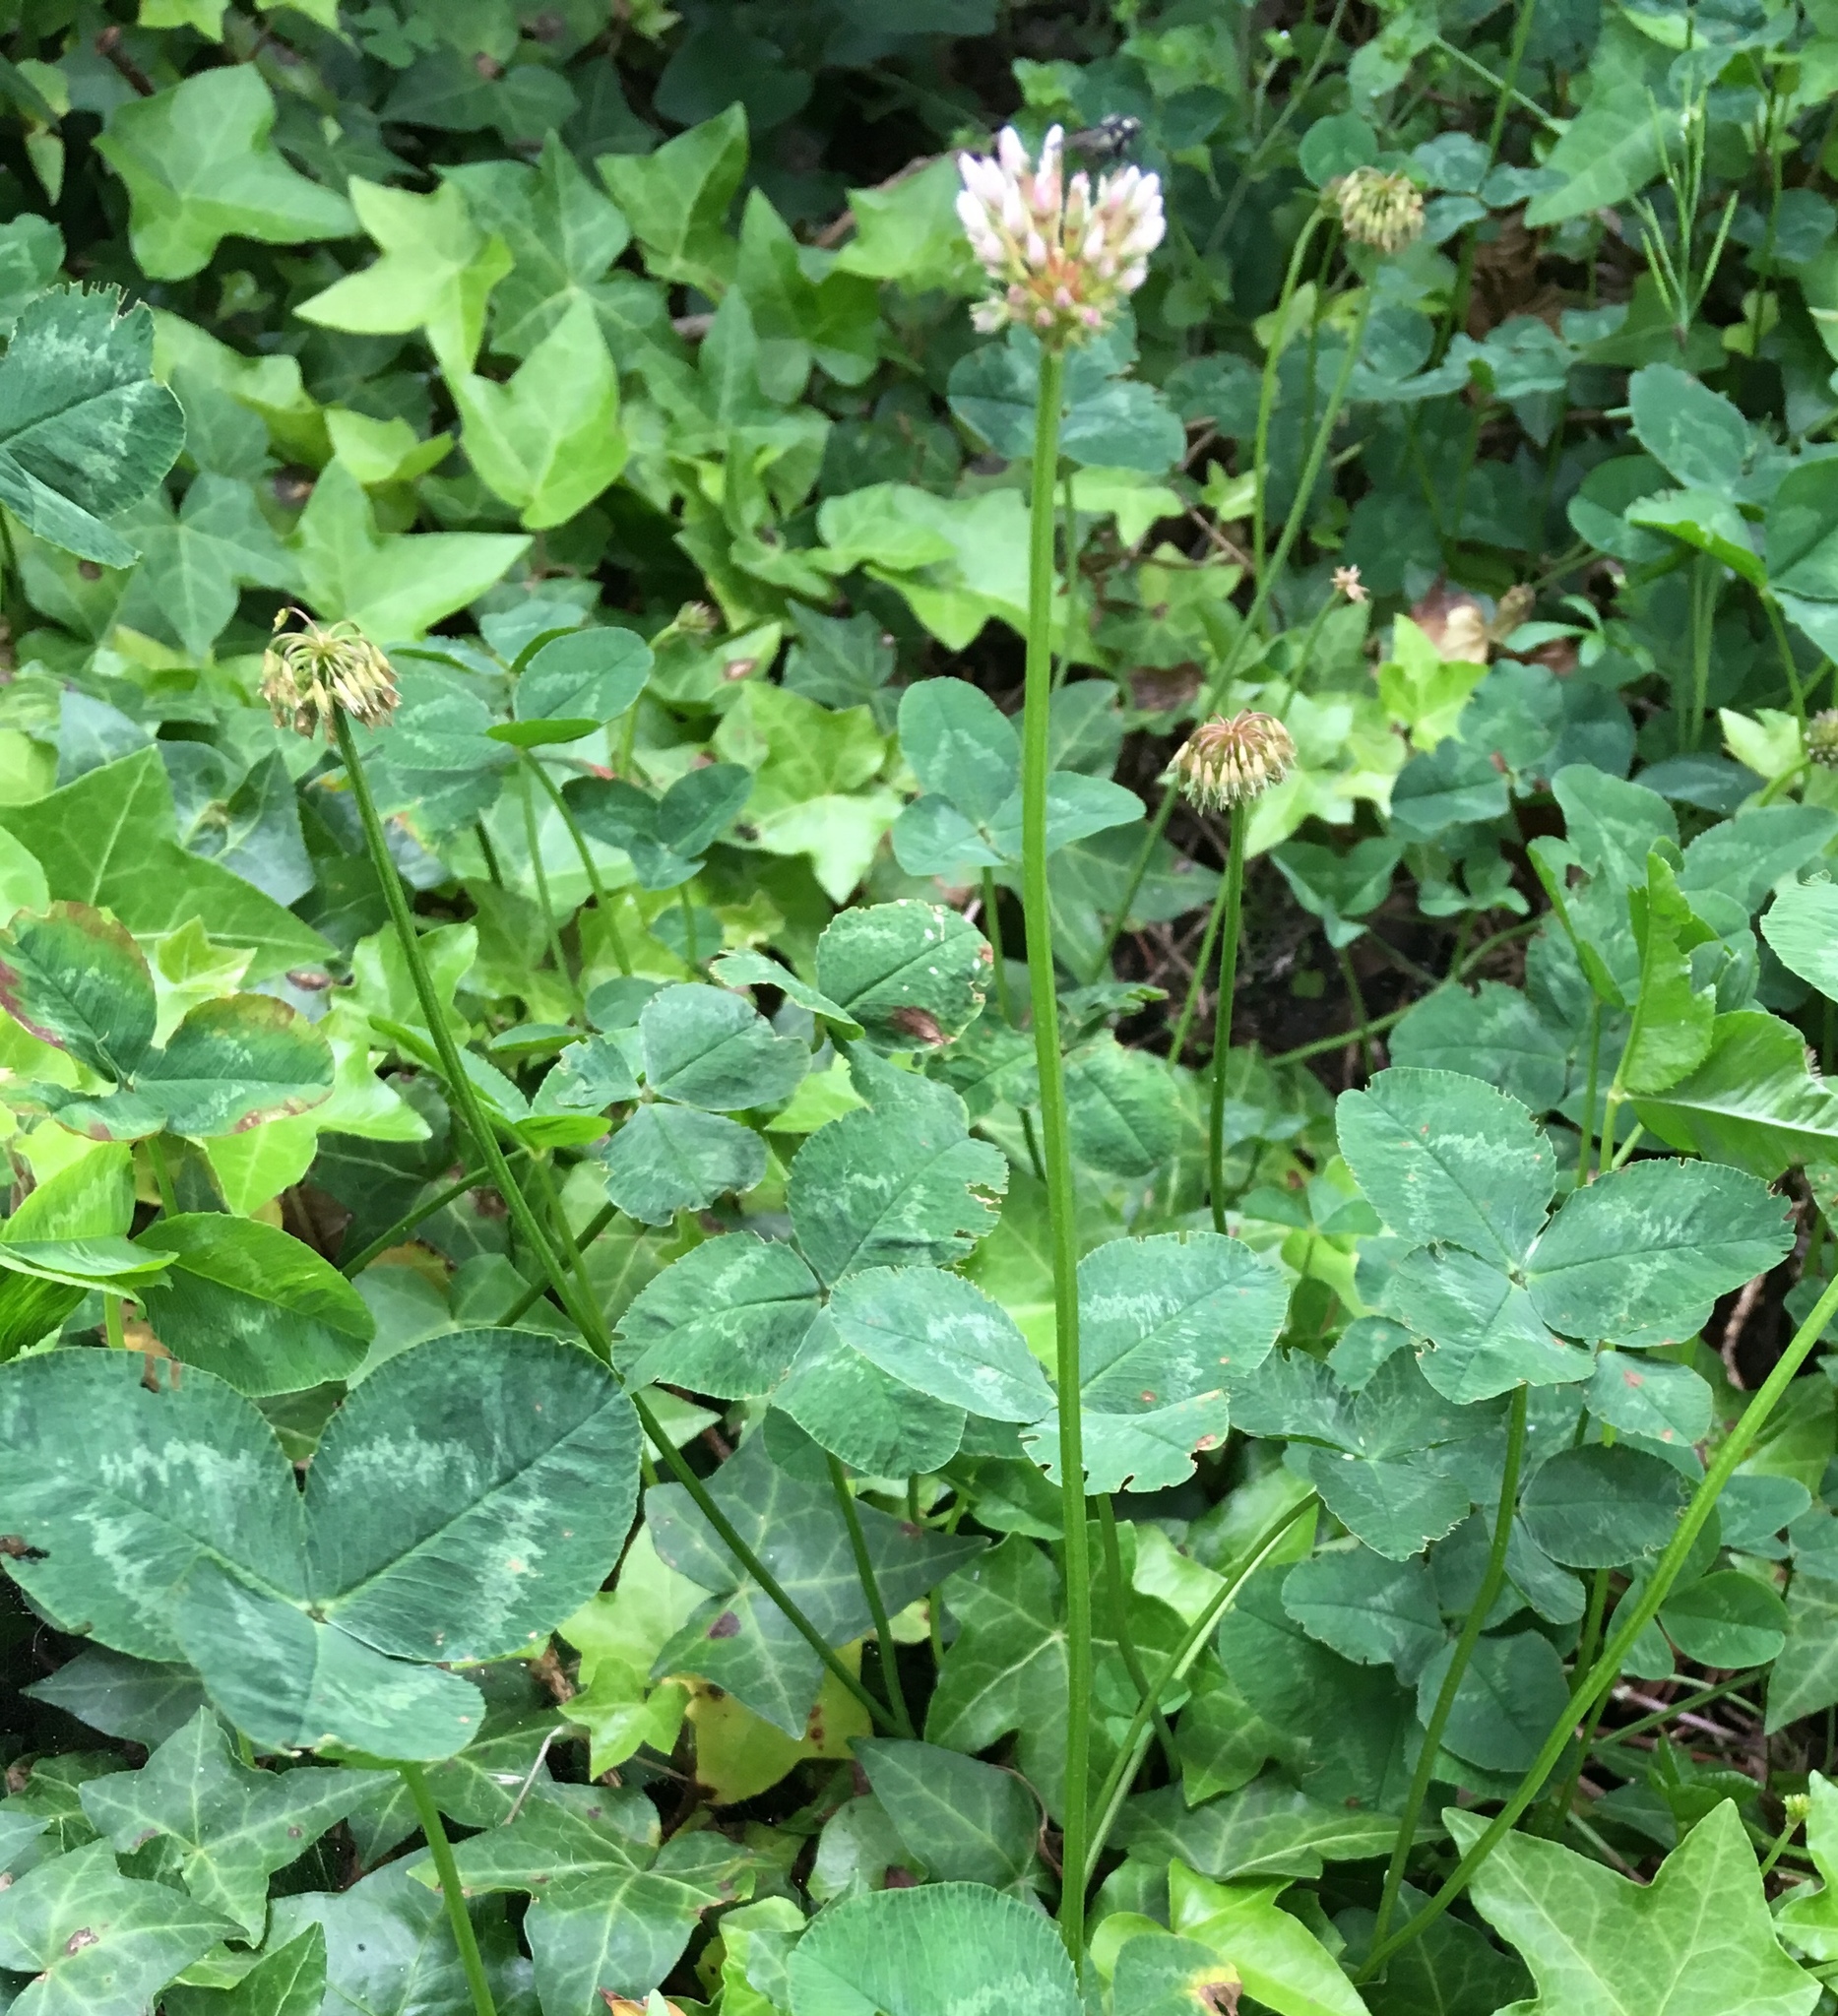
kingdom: Plantae
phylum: Tracheophyta
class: Magnoliopsida
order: Fabales
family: Fabaceae
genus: Trifolium
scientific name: Trifolium repens
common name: White clover
